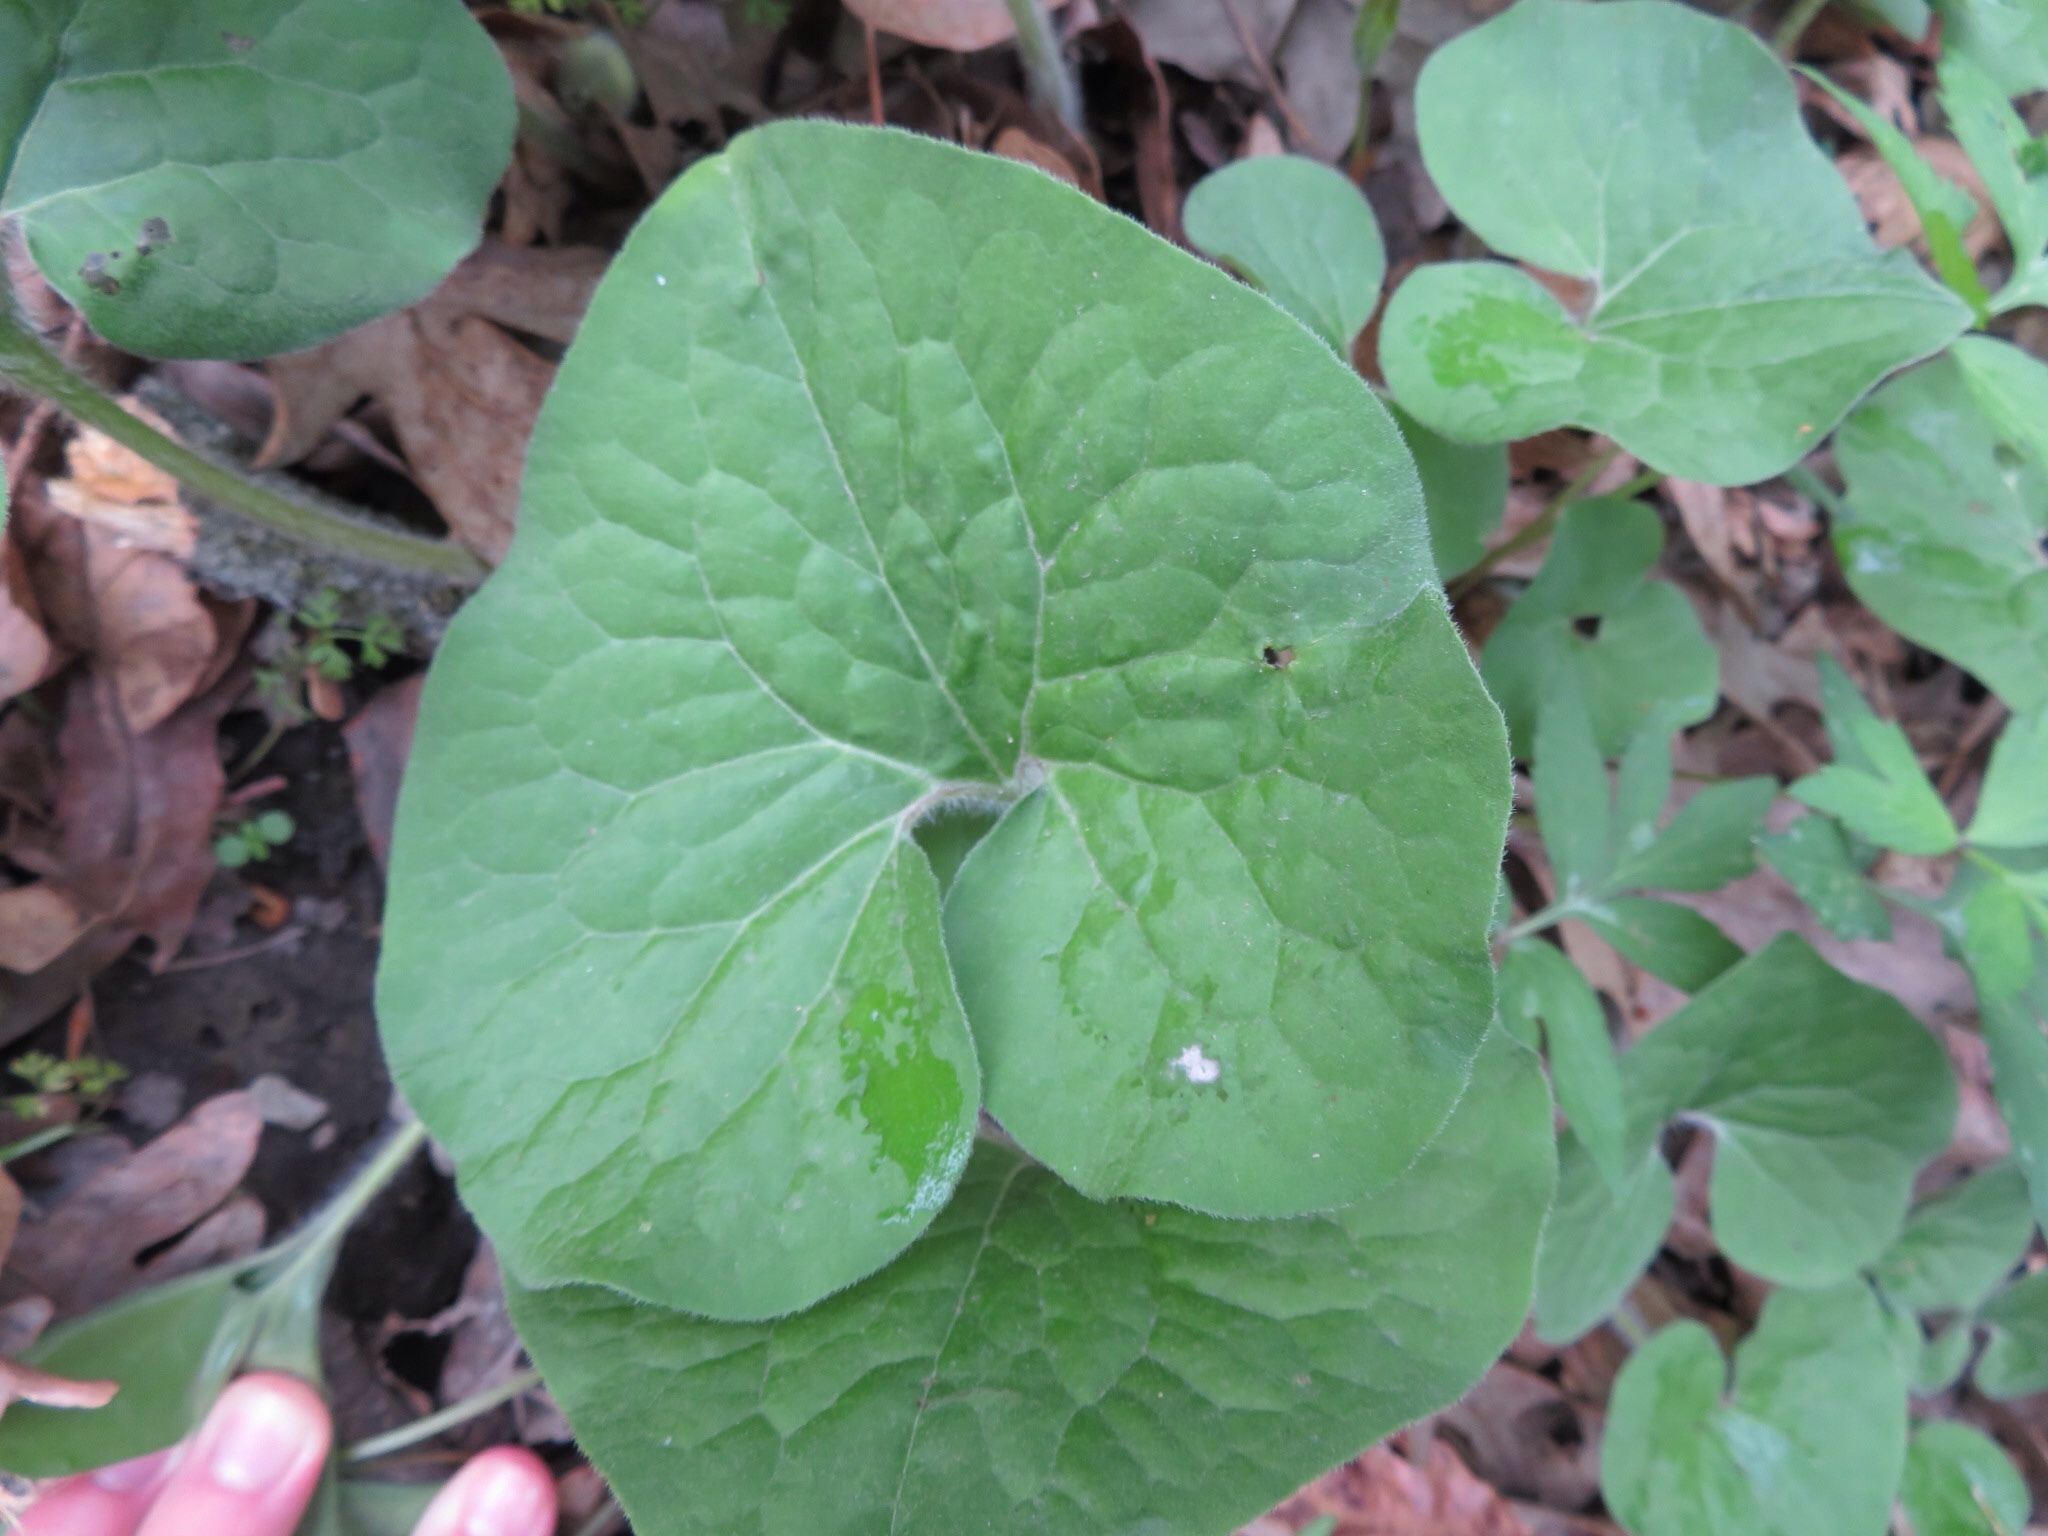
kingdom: Plantae
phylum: Tracheophyta
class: Magnoliopsida
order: Piperales
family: Aristolochiaceae
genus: Asarum
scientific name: Asarum canadense
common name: Wild ginger
